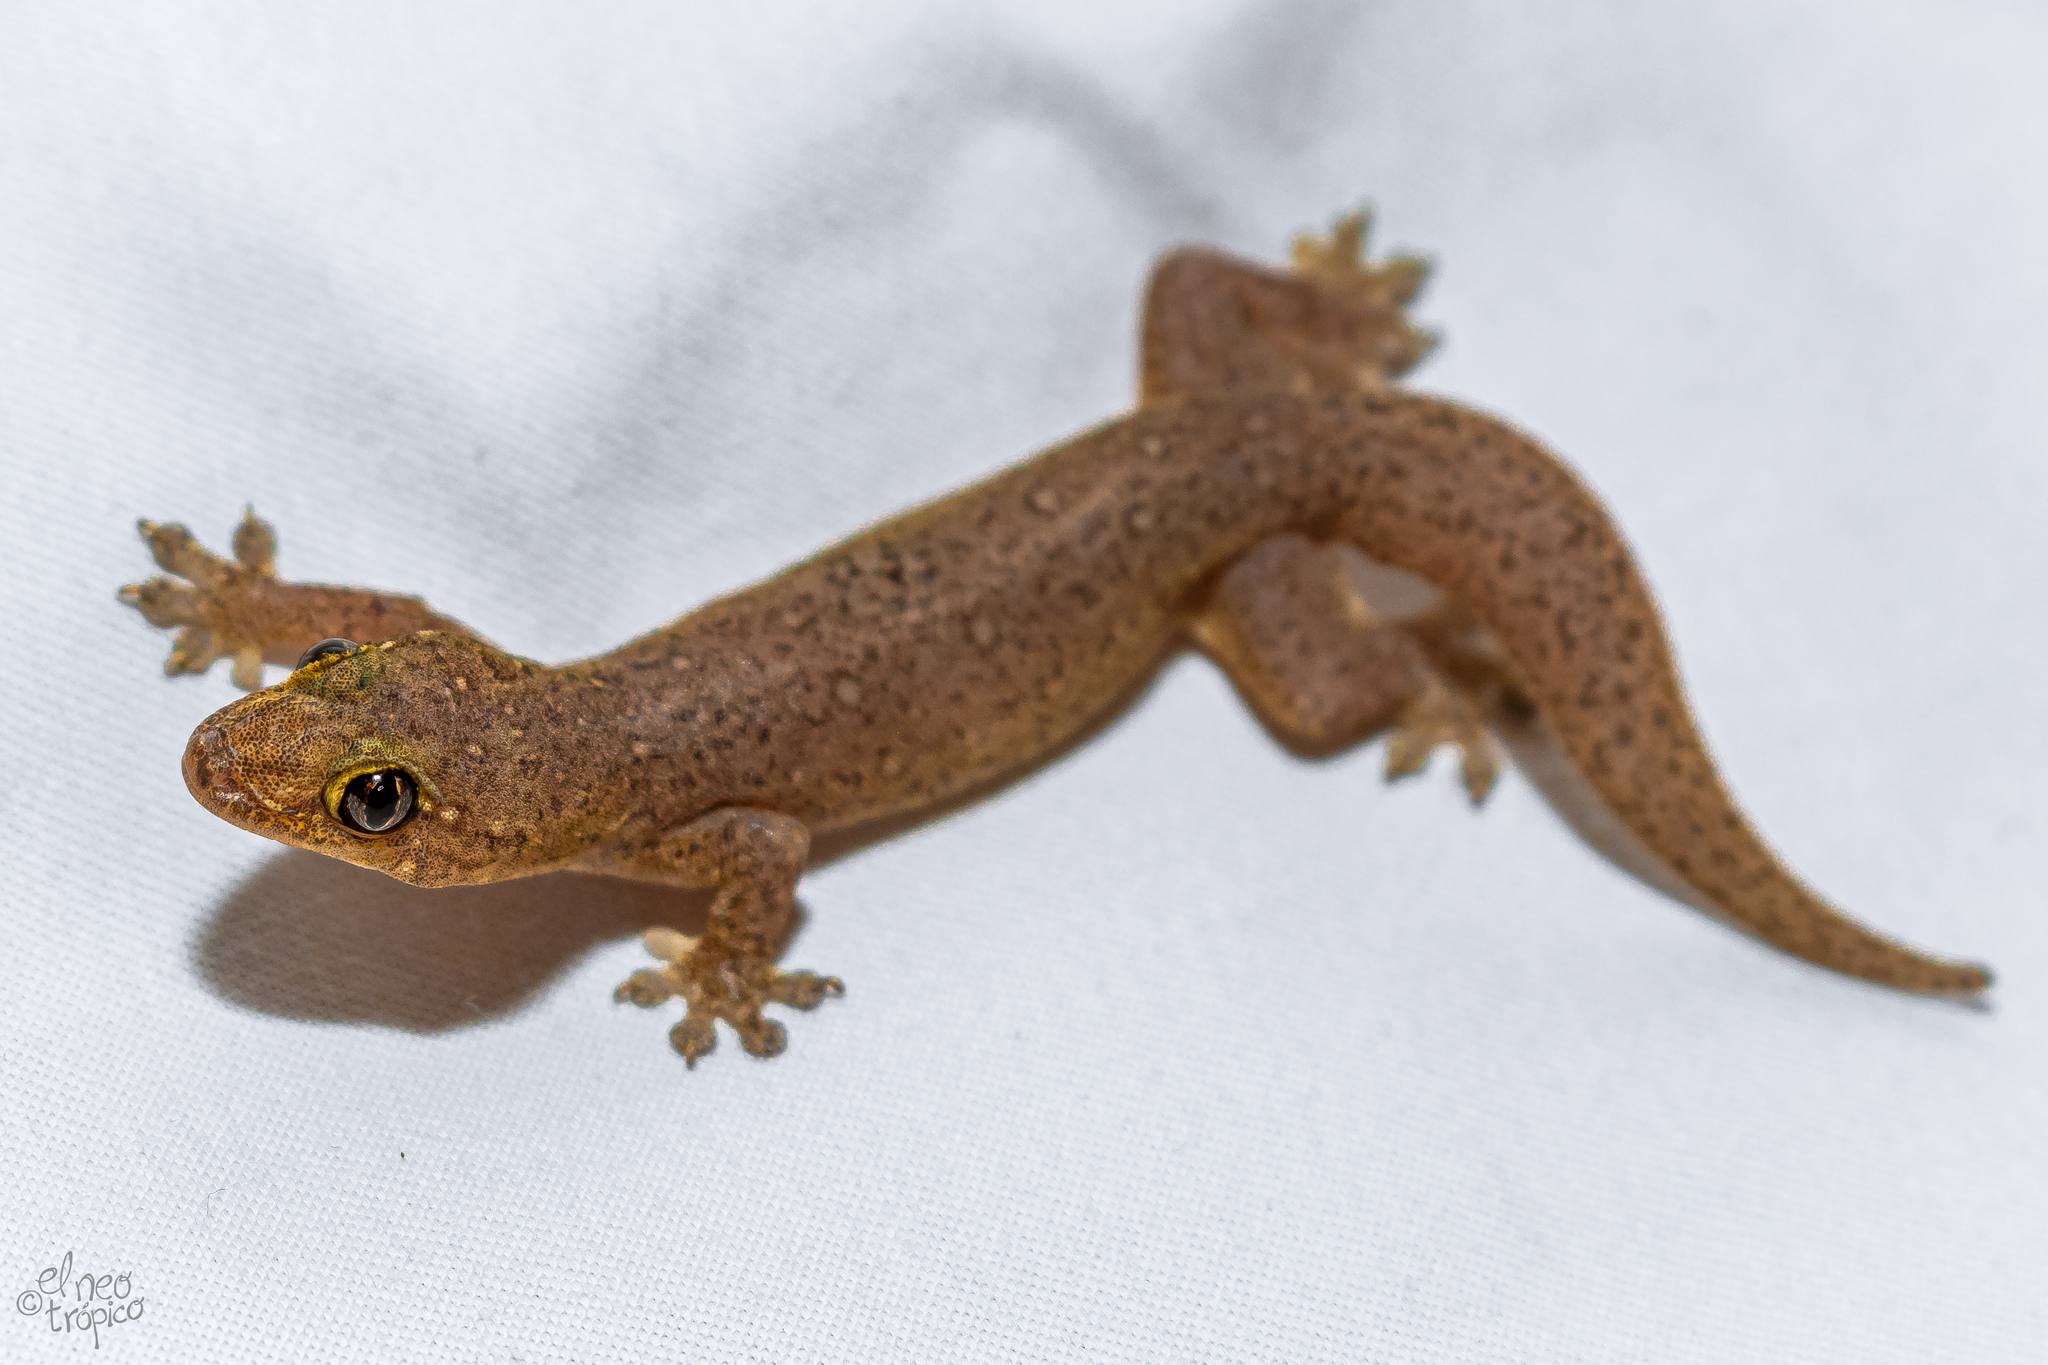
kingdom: Animalia
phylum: Chordata
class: Squamata
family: Gekkonidae
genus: Gehyra
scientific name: Gehyra mutilata
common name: Stump-toed gecko
